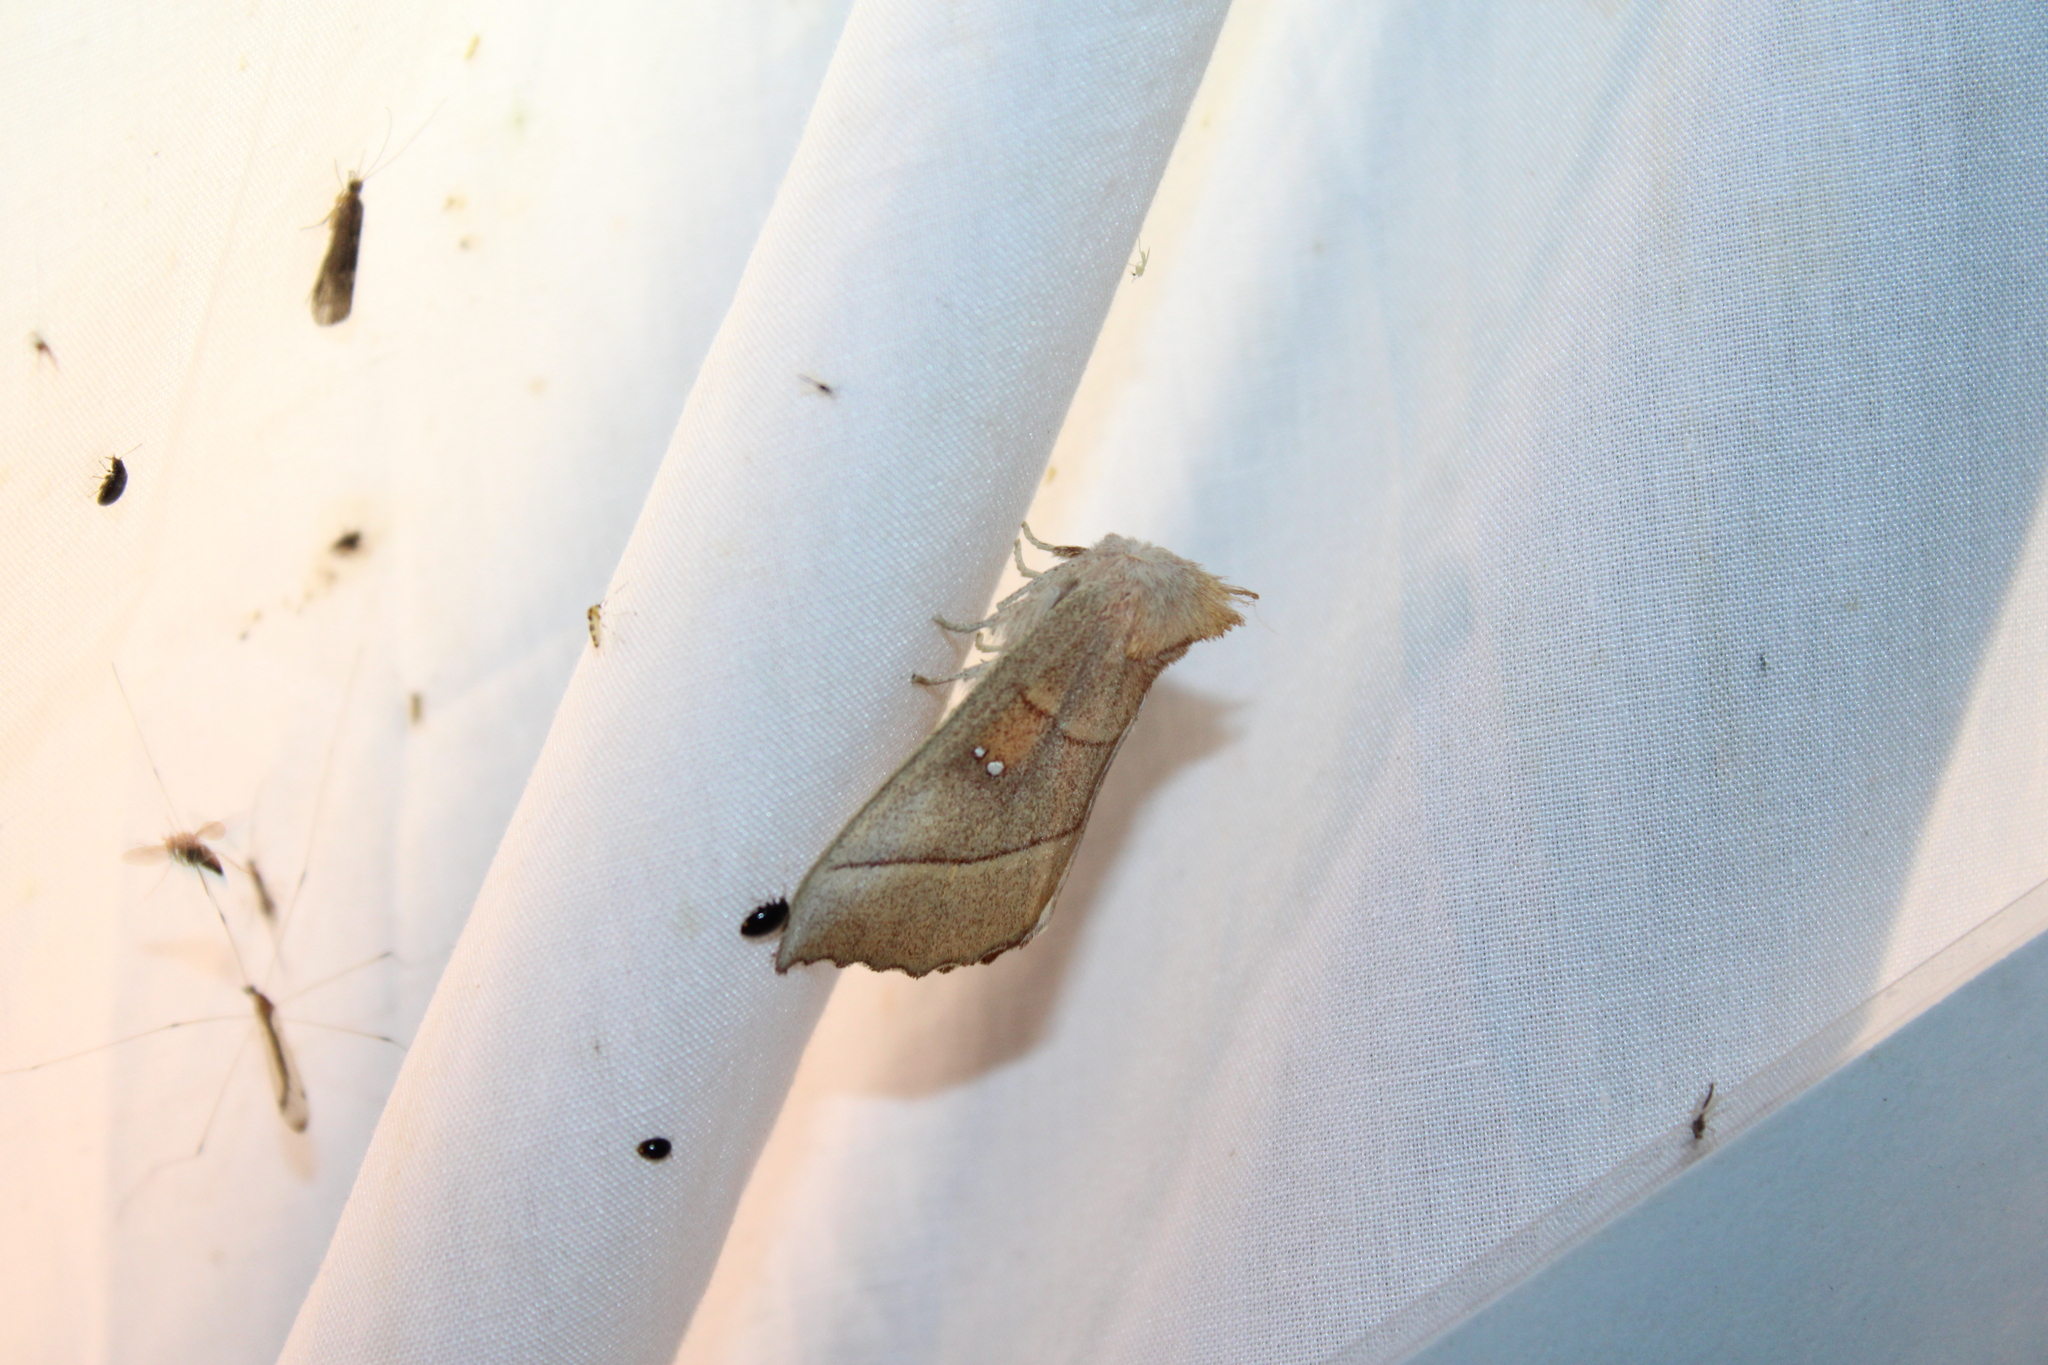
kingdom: Animalia
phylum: Arthropoda
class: Insecta
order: Lepidoptera
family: Notodontidae
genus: Nadata
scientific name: Nadata gibbosa
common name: White-dotted prominent
